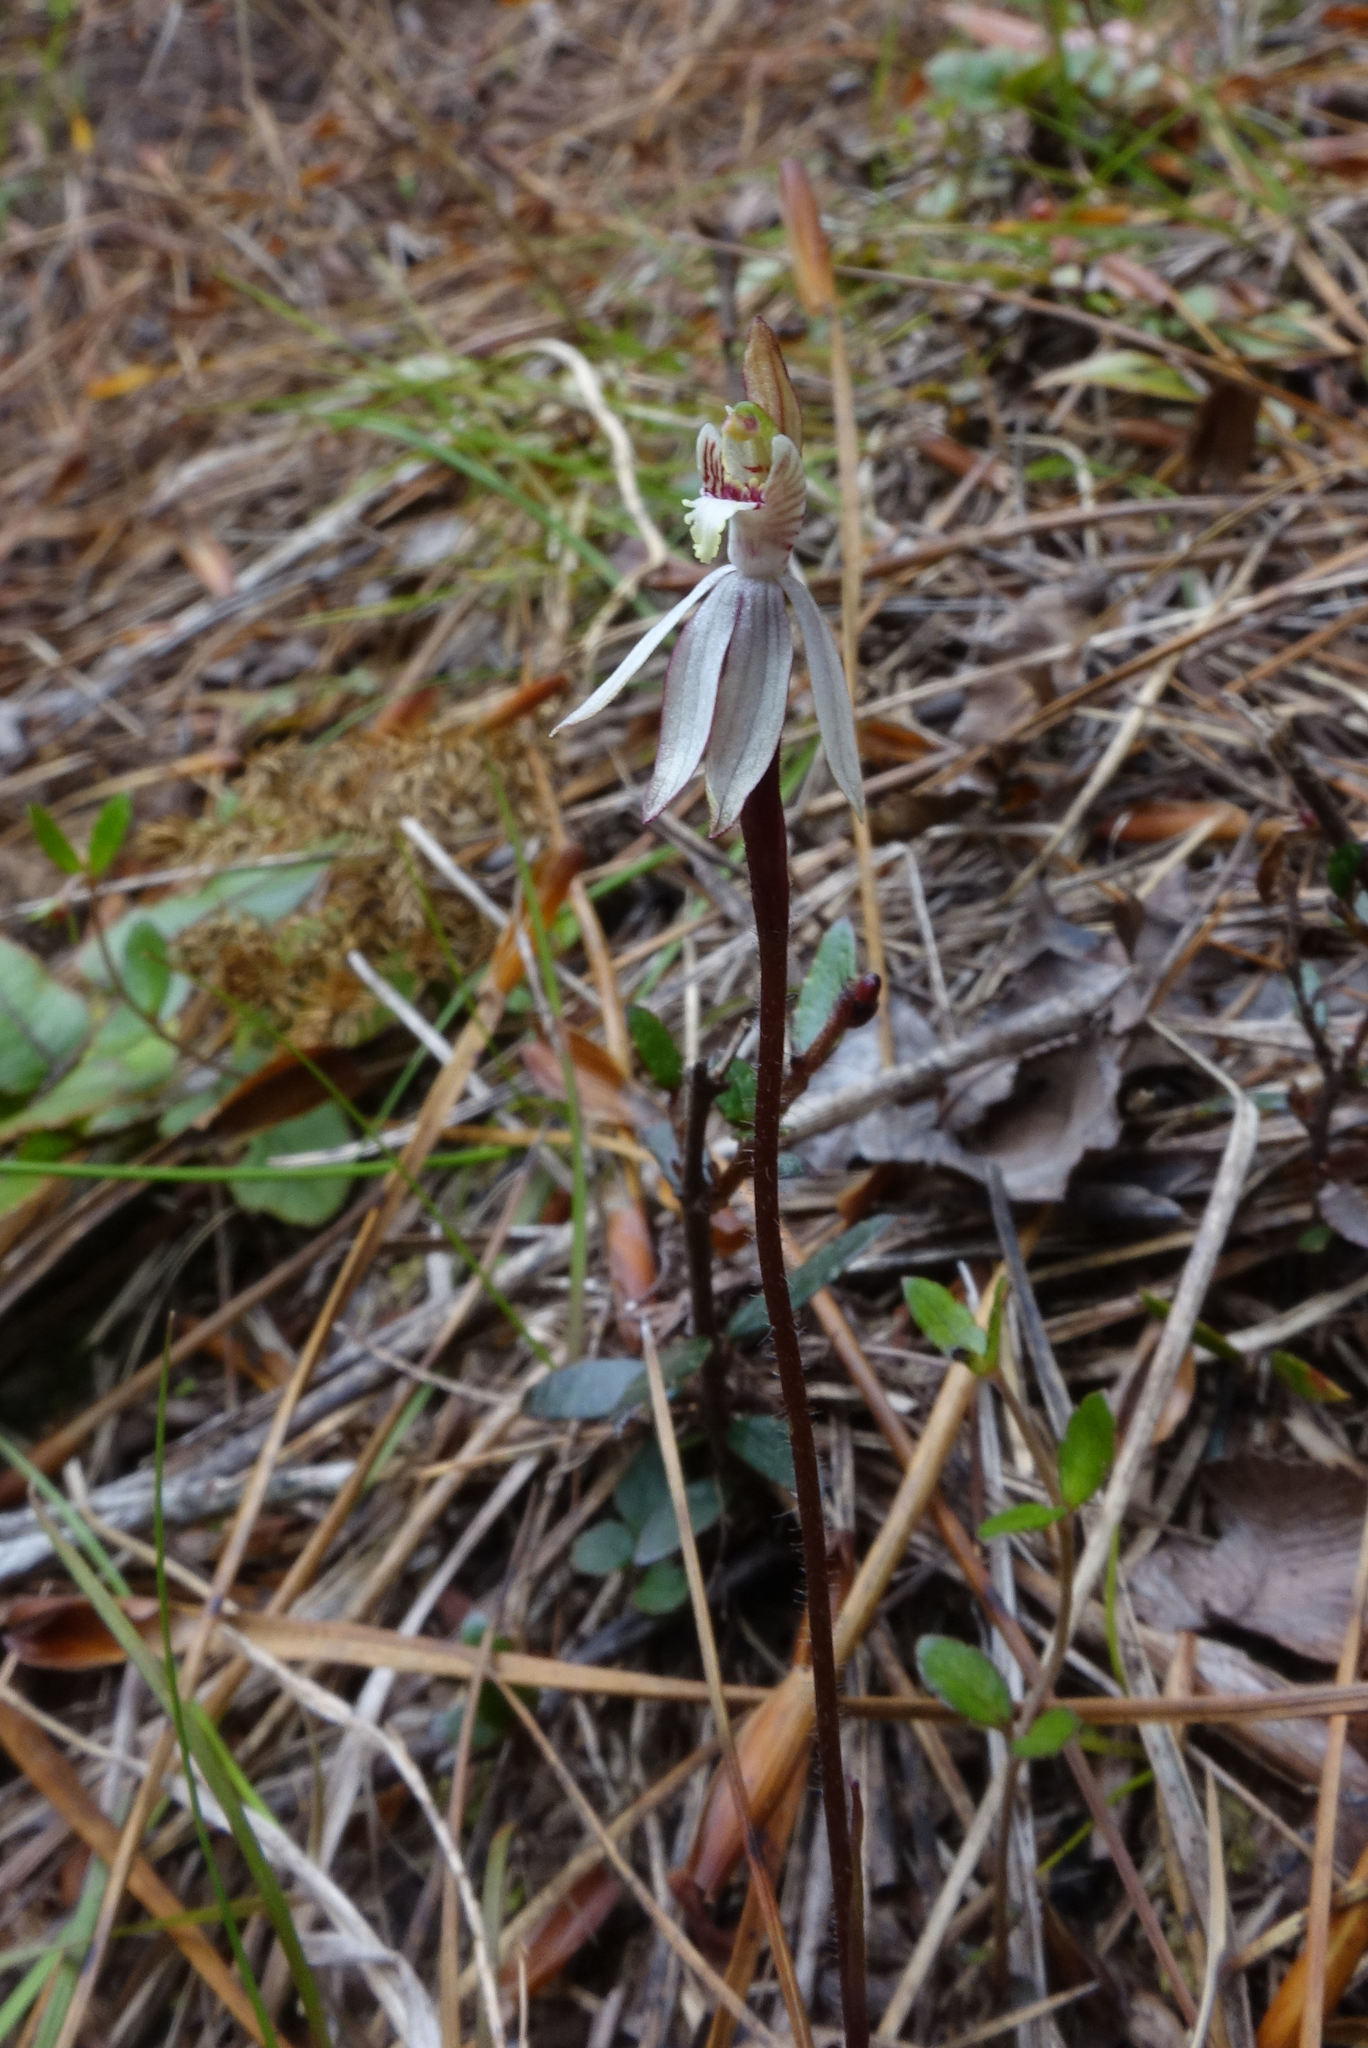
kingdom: Plantae
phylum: Tracheophyta
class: Liliopsida
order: Asparagales
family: Orchidaceae
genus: Caladenia
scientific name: Caladenia chlorostyla
